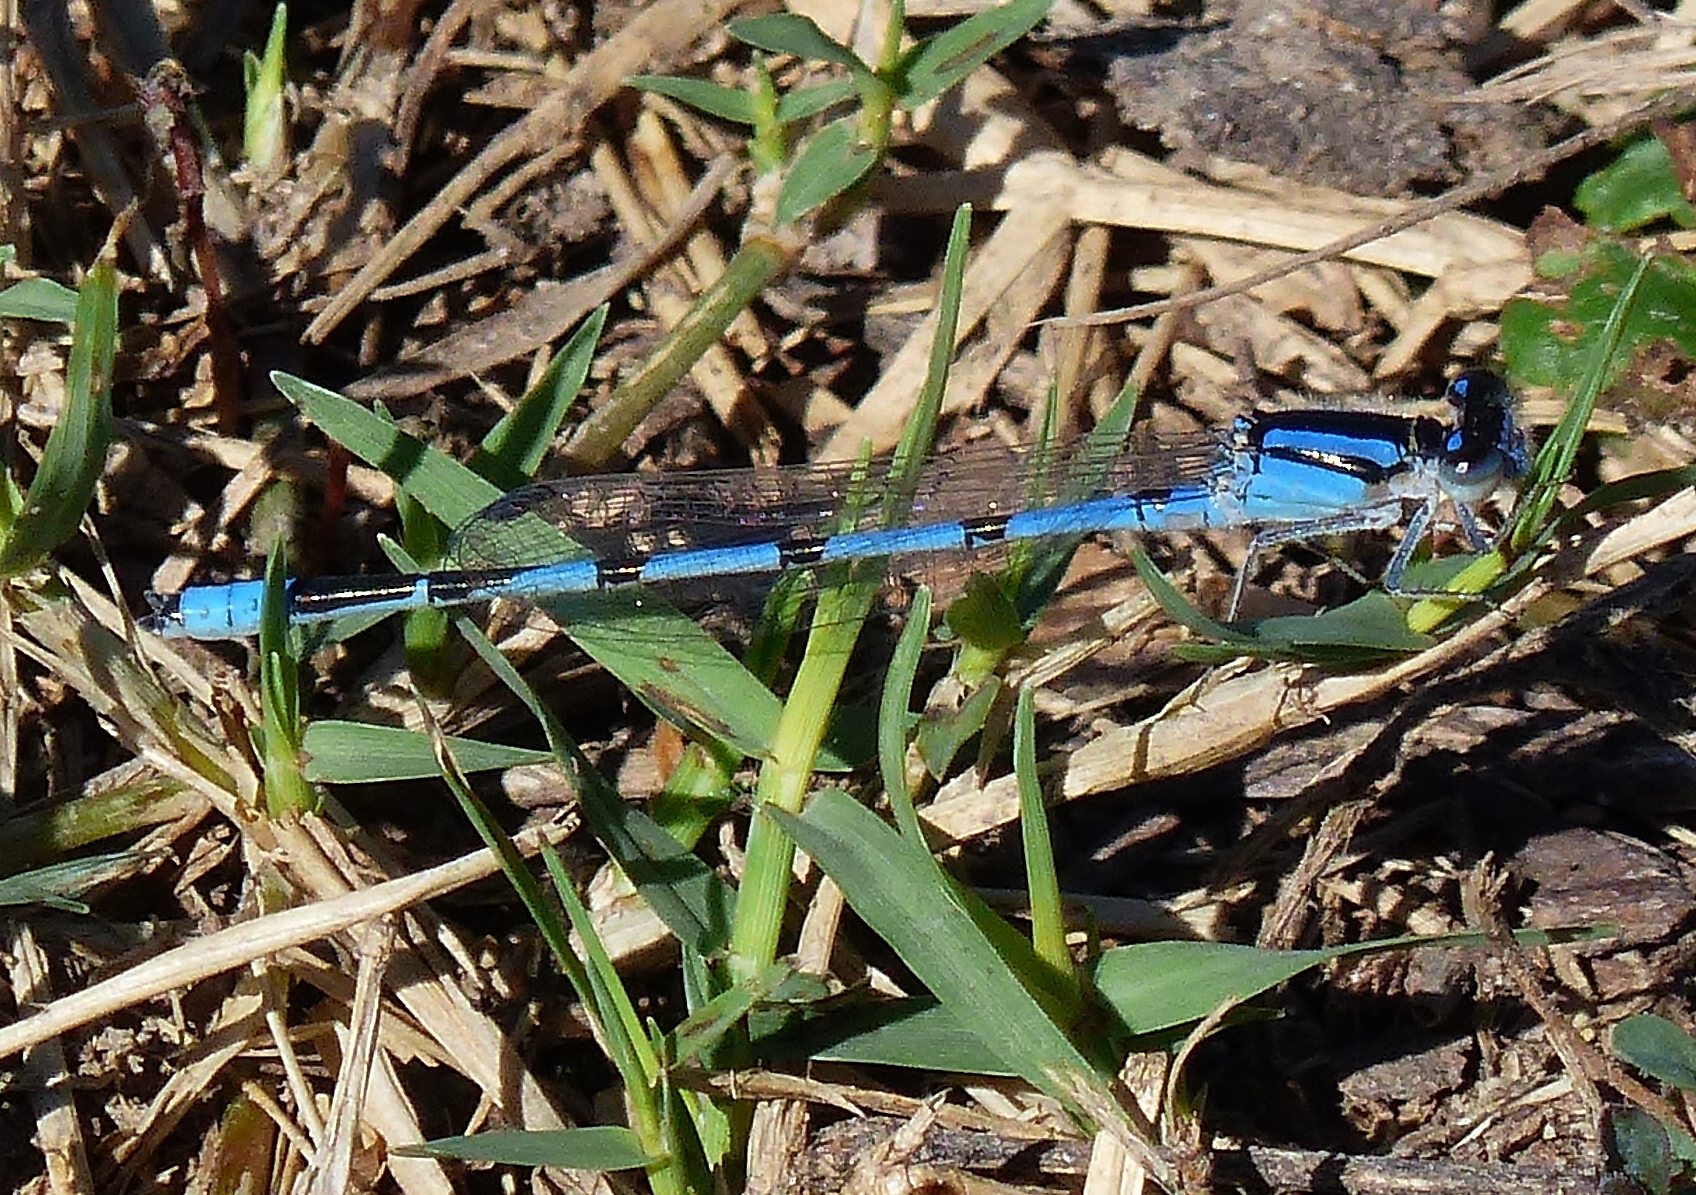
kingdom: Animalia
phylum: Arthropoda
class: Insecta
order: Odonata
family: Coenagrionidae
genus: Enallagma
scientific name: Enallagma civile
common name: Damselfly
